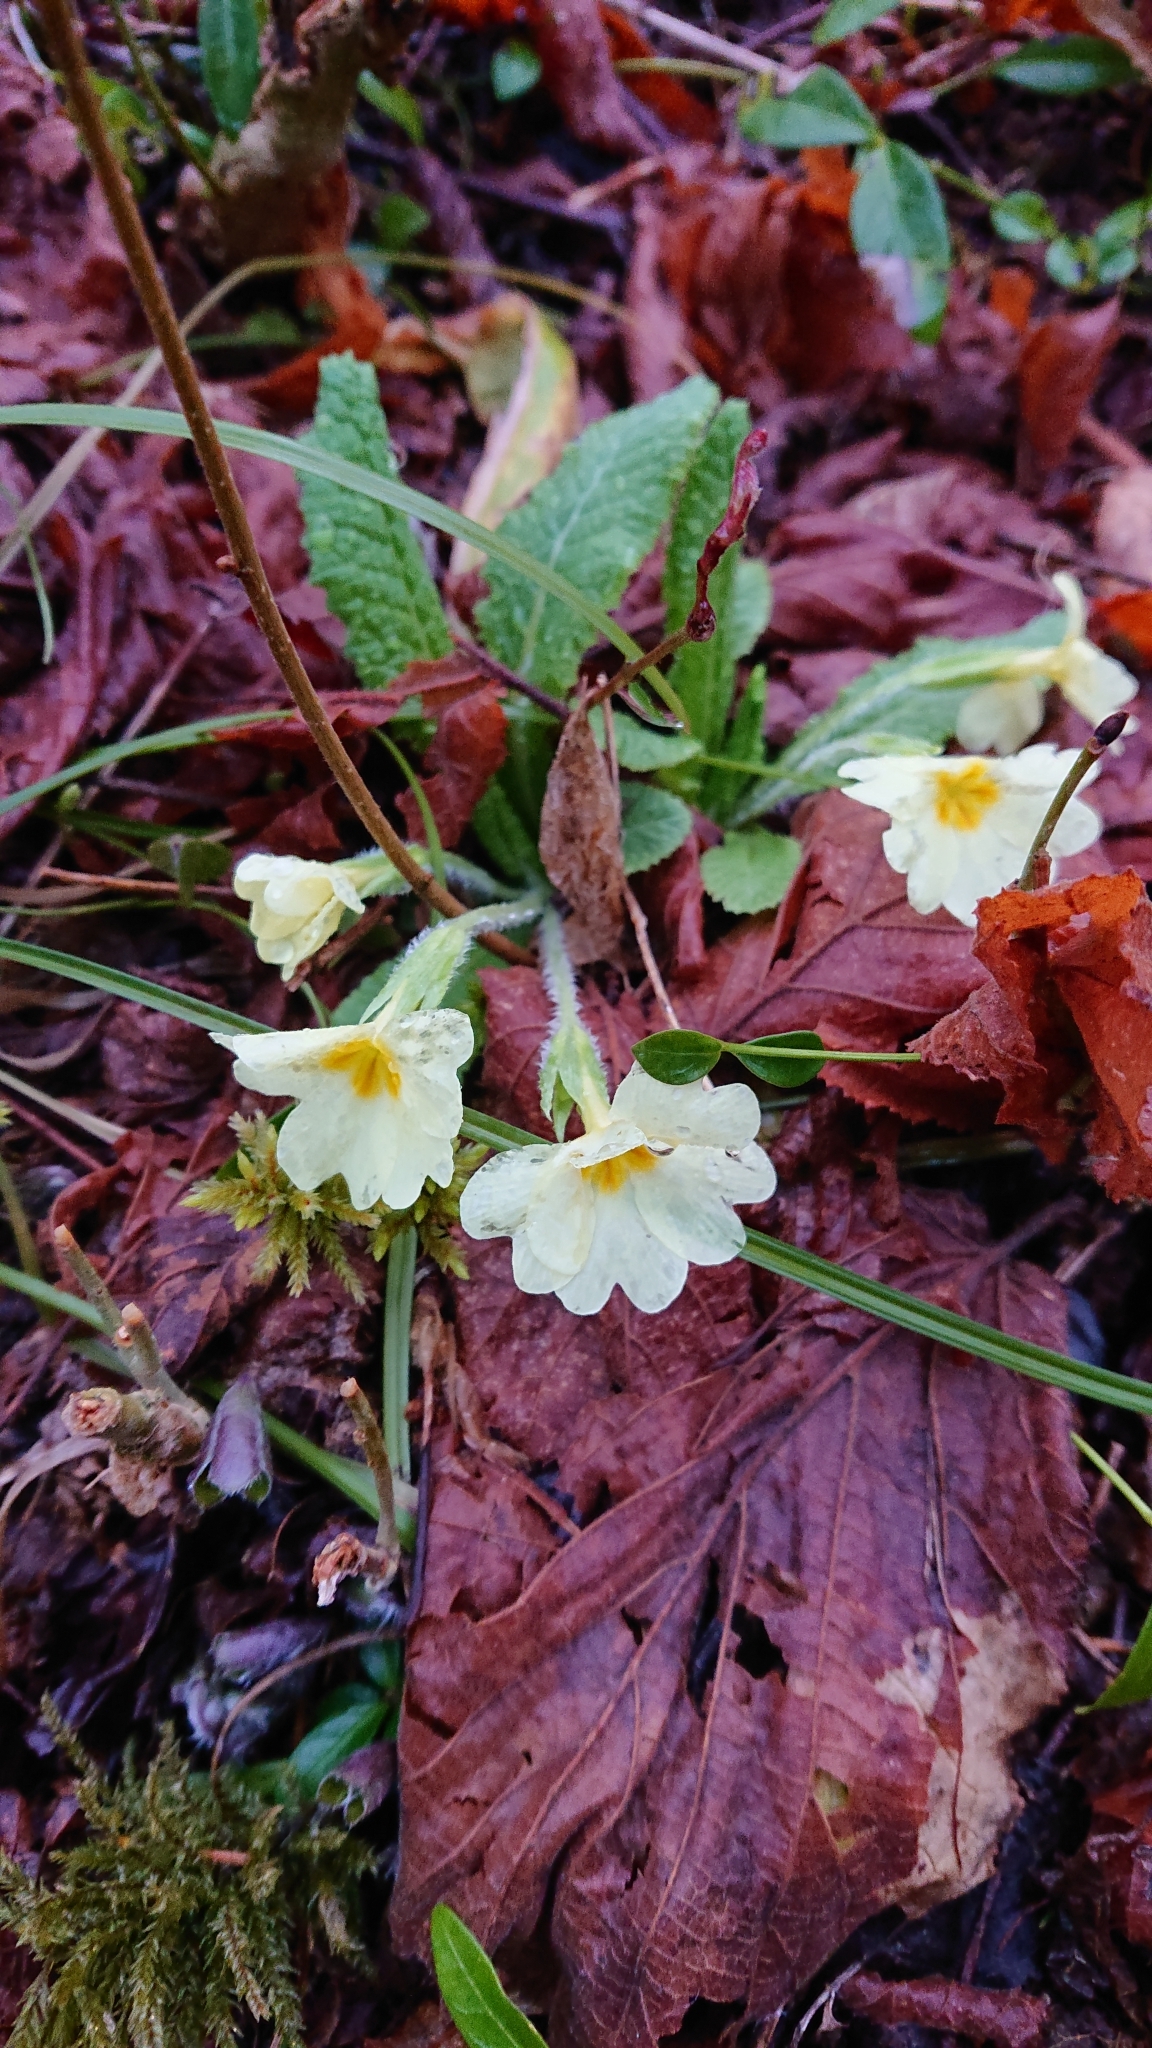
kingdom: Plantae
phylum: Tracheophyta
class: Magnoliopsida
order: Ericales
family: Primulaceae
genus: Primula
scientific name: Primula vulgaris
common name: Primrose
